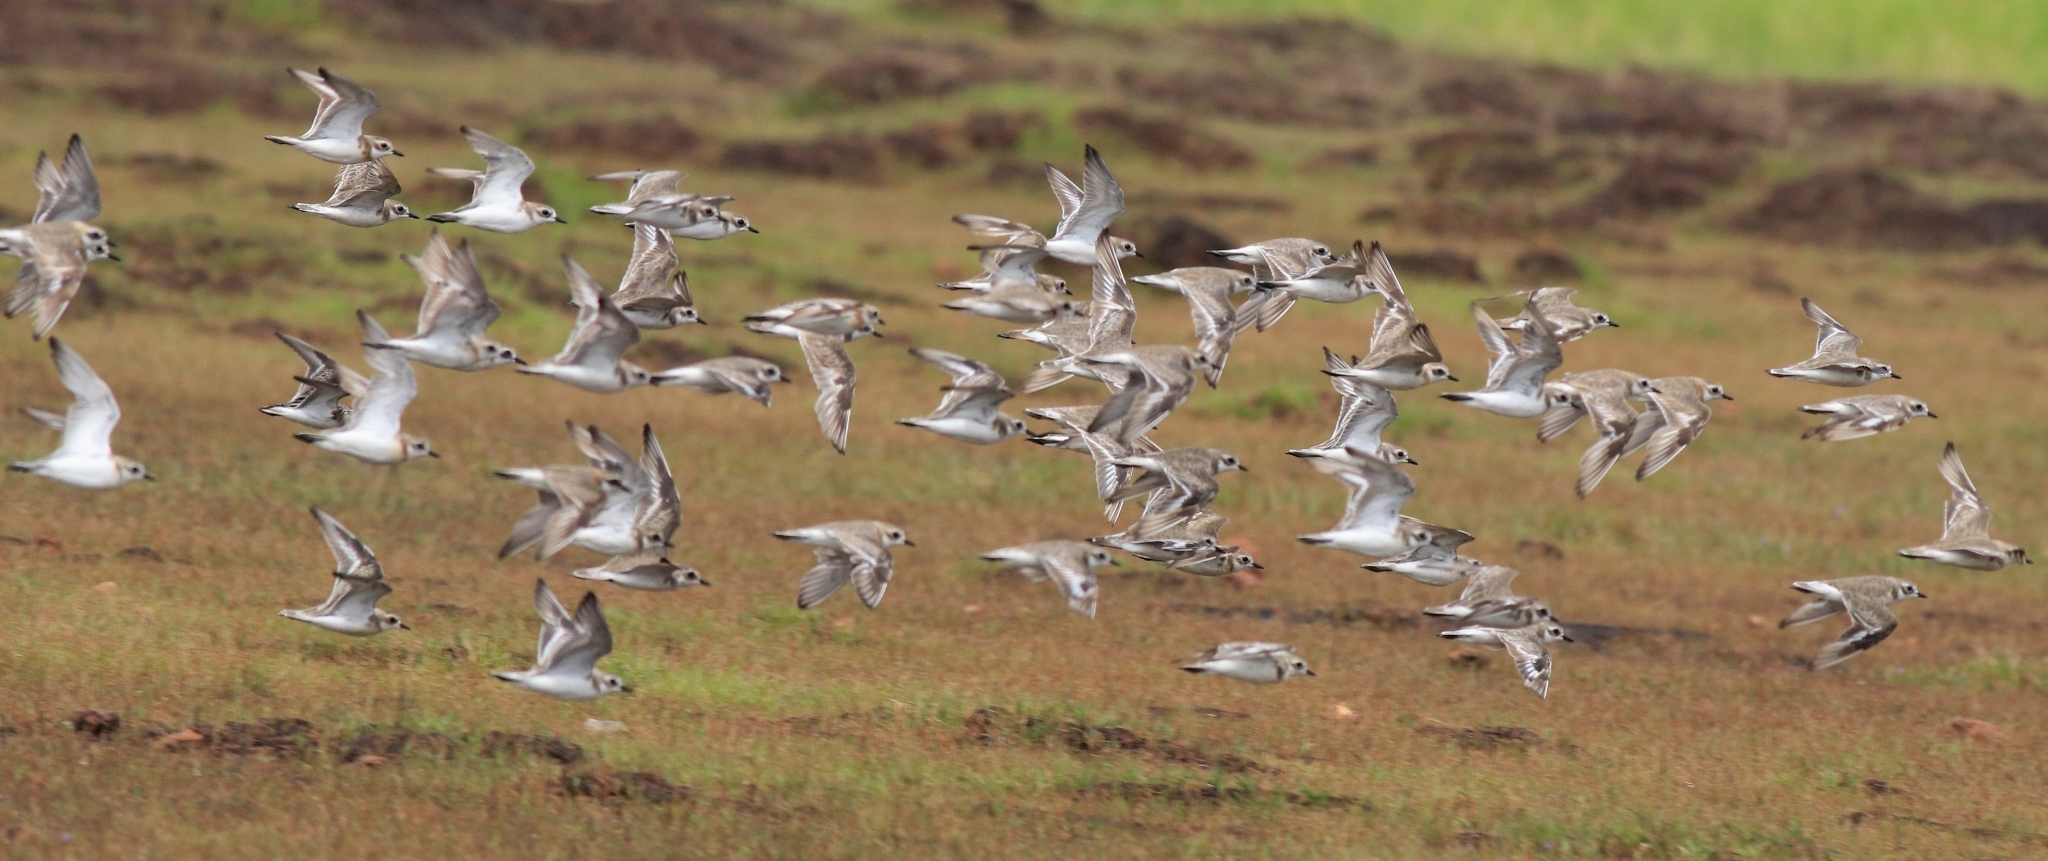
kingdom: Animalia
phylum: Chordata
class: Aves
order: Charadriiformes
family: Charadriidae
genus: Anarhynchus
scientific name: Anarhynchus
